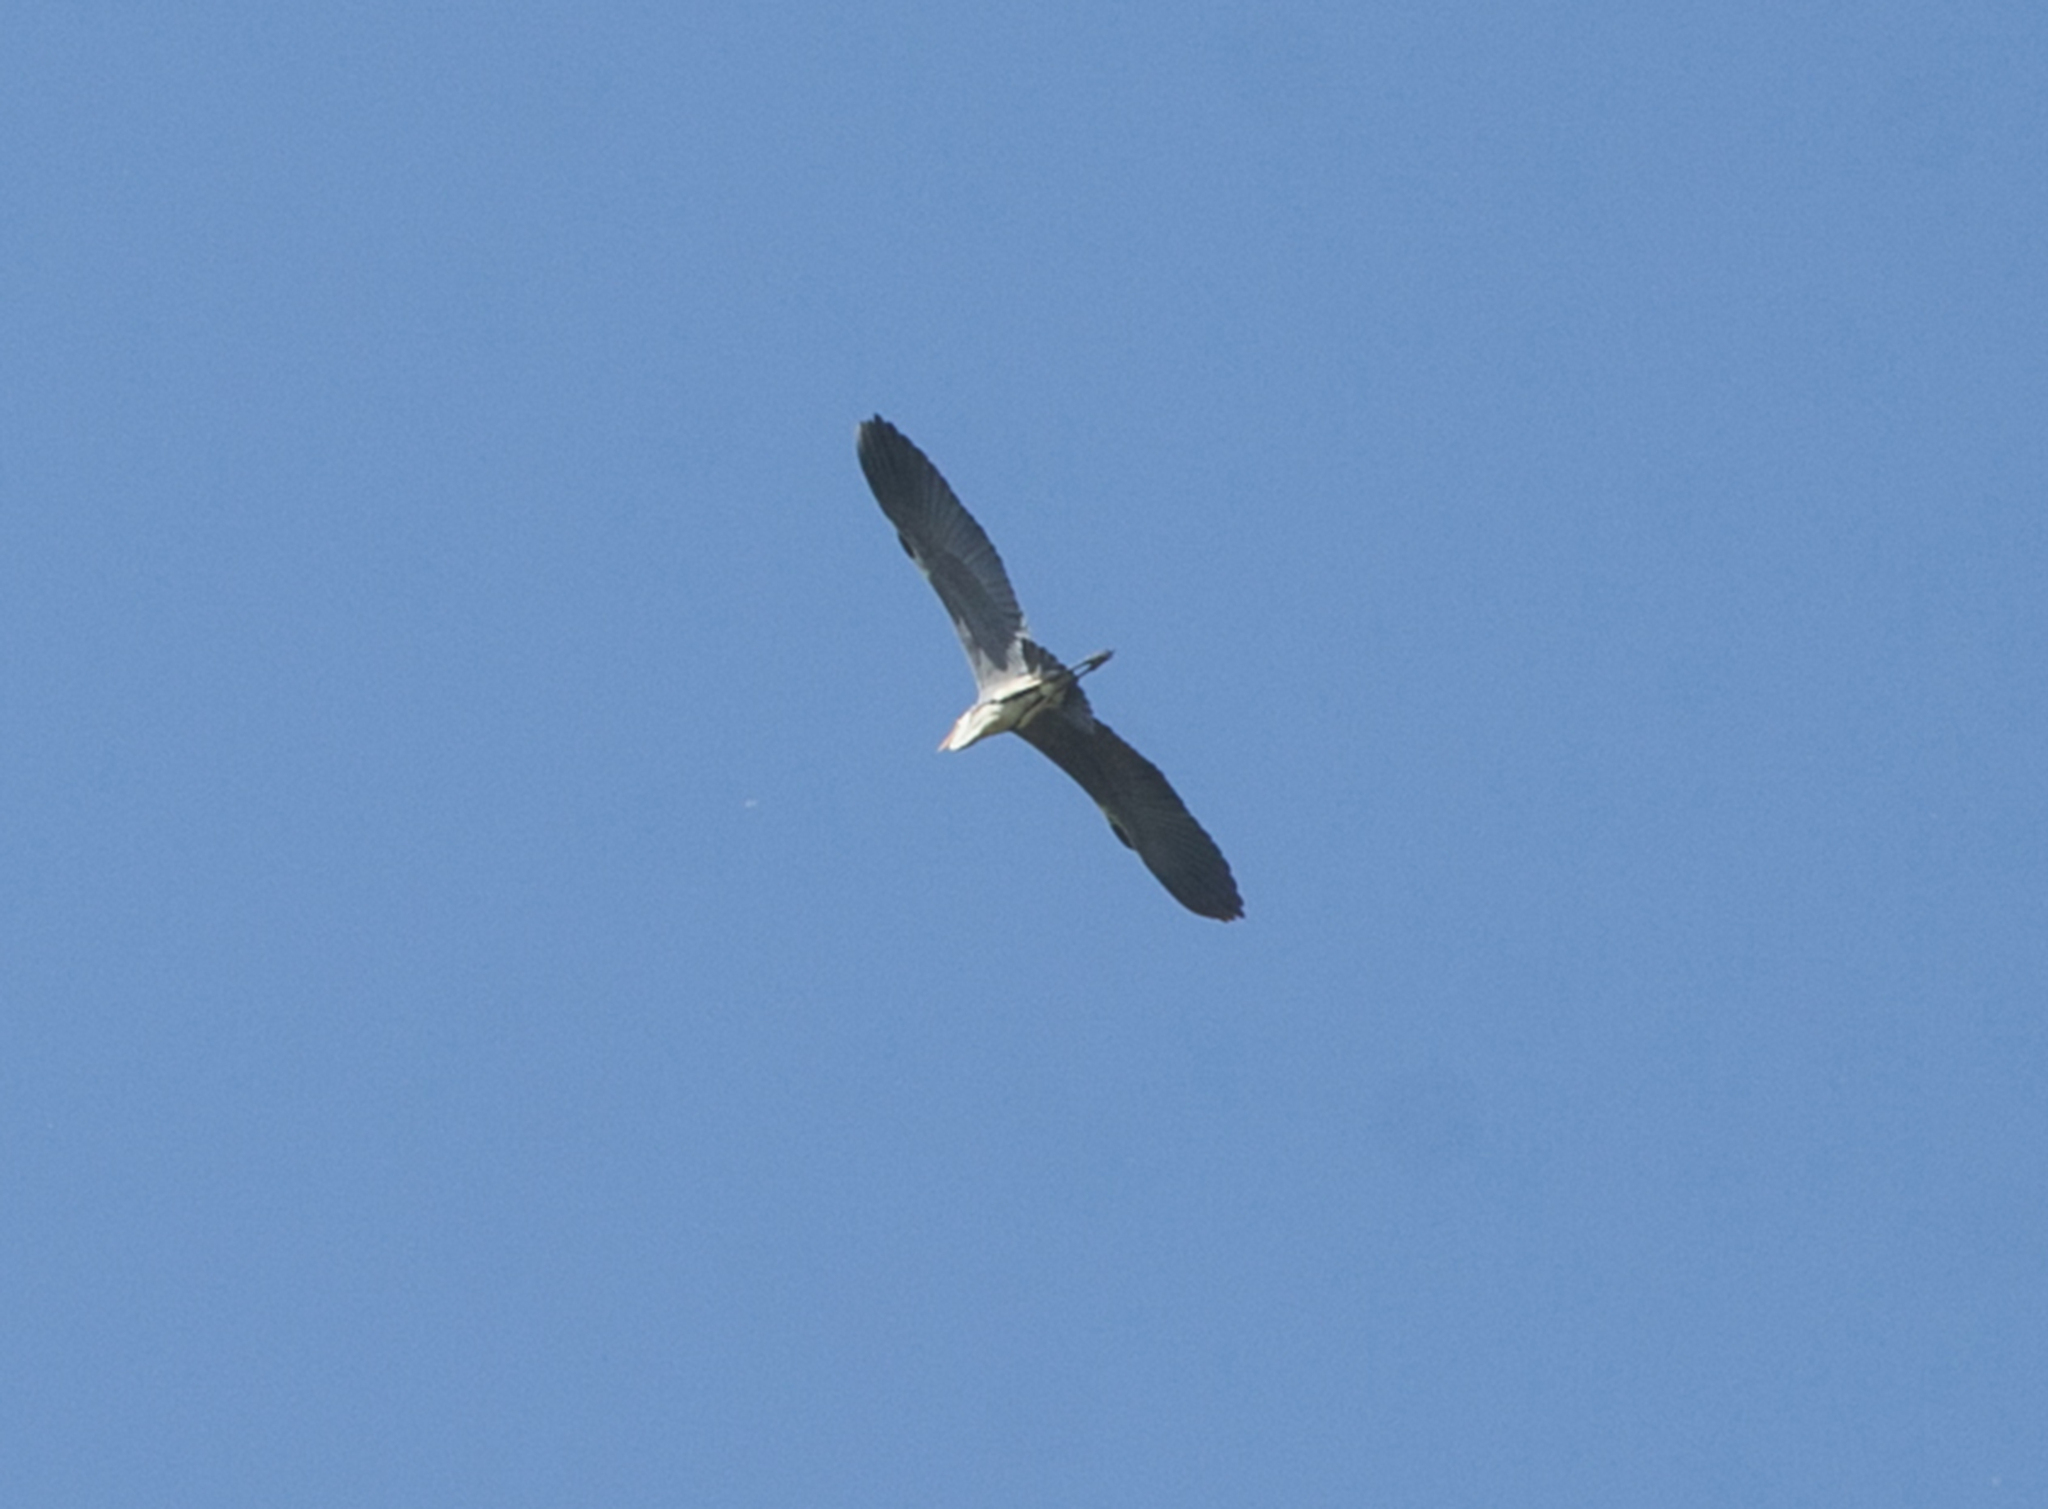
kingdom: Animalia
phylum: Chordata
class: Aves
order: Pelecaniformes
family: Ardeidae
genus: Ardea
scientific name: Ardea cinerea
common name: Grey heron
